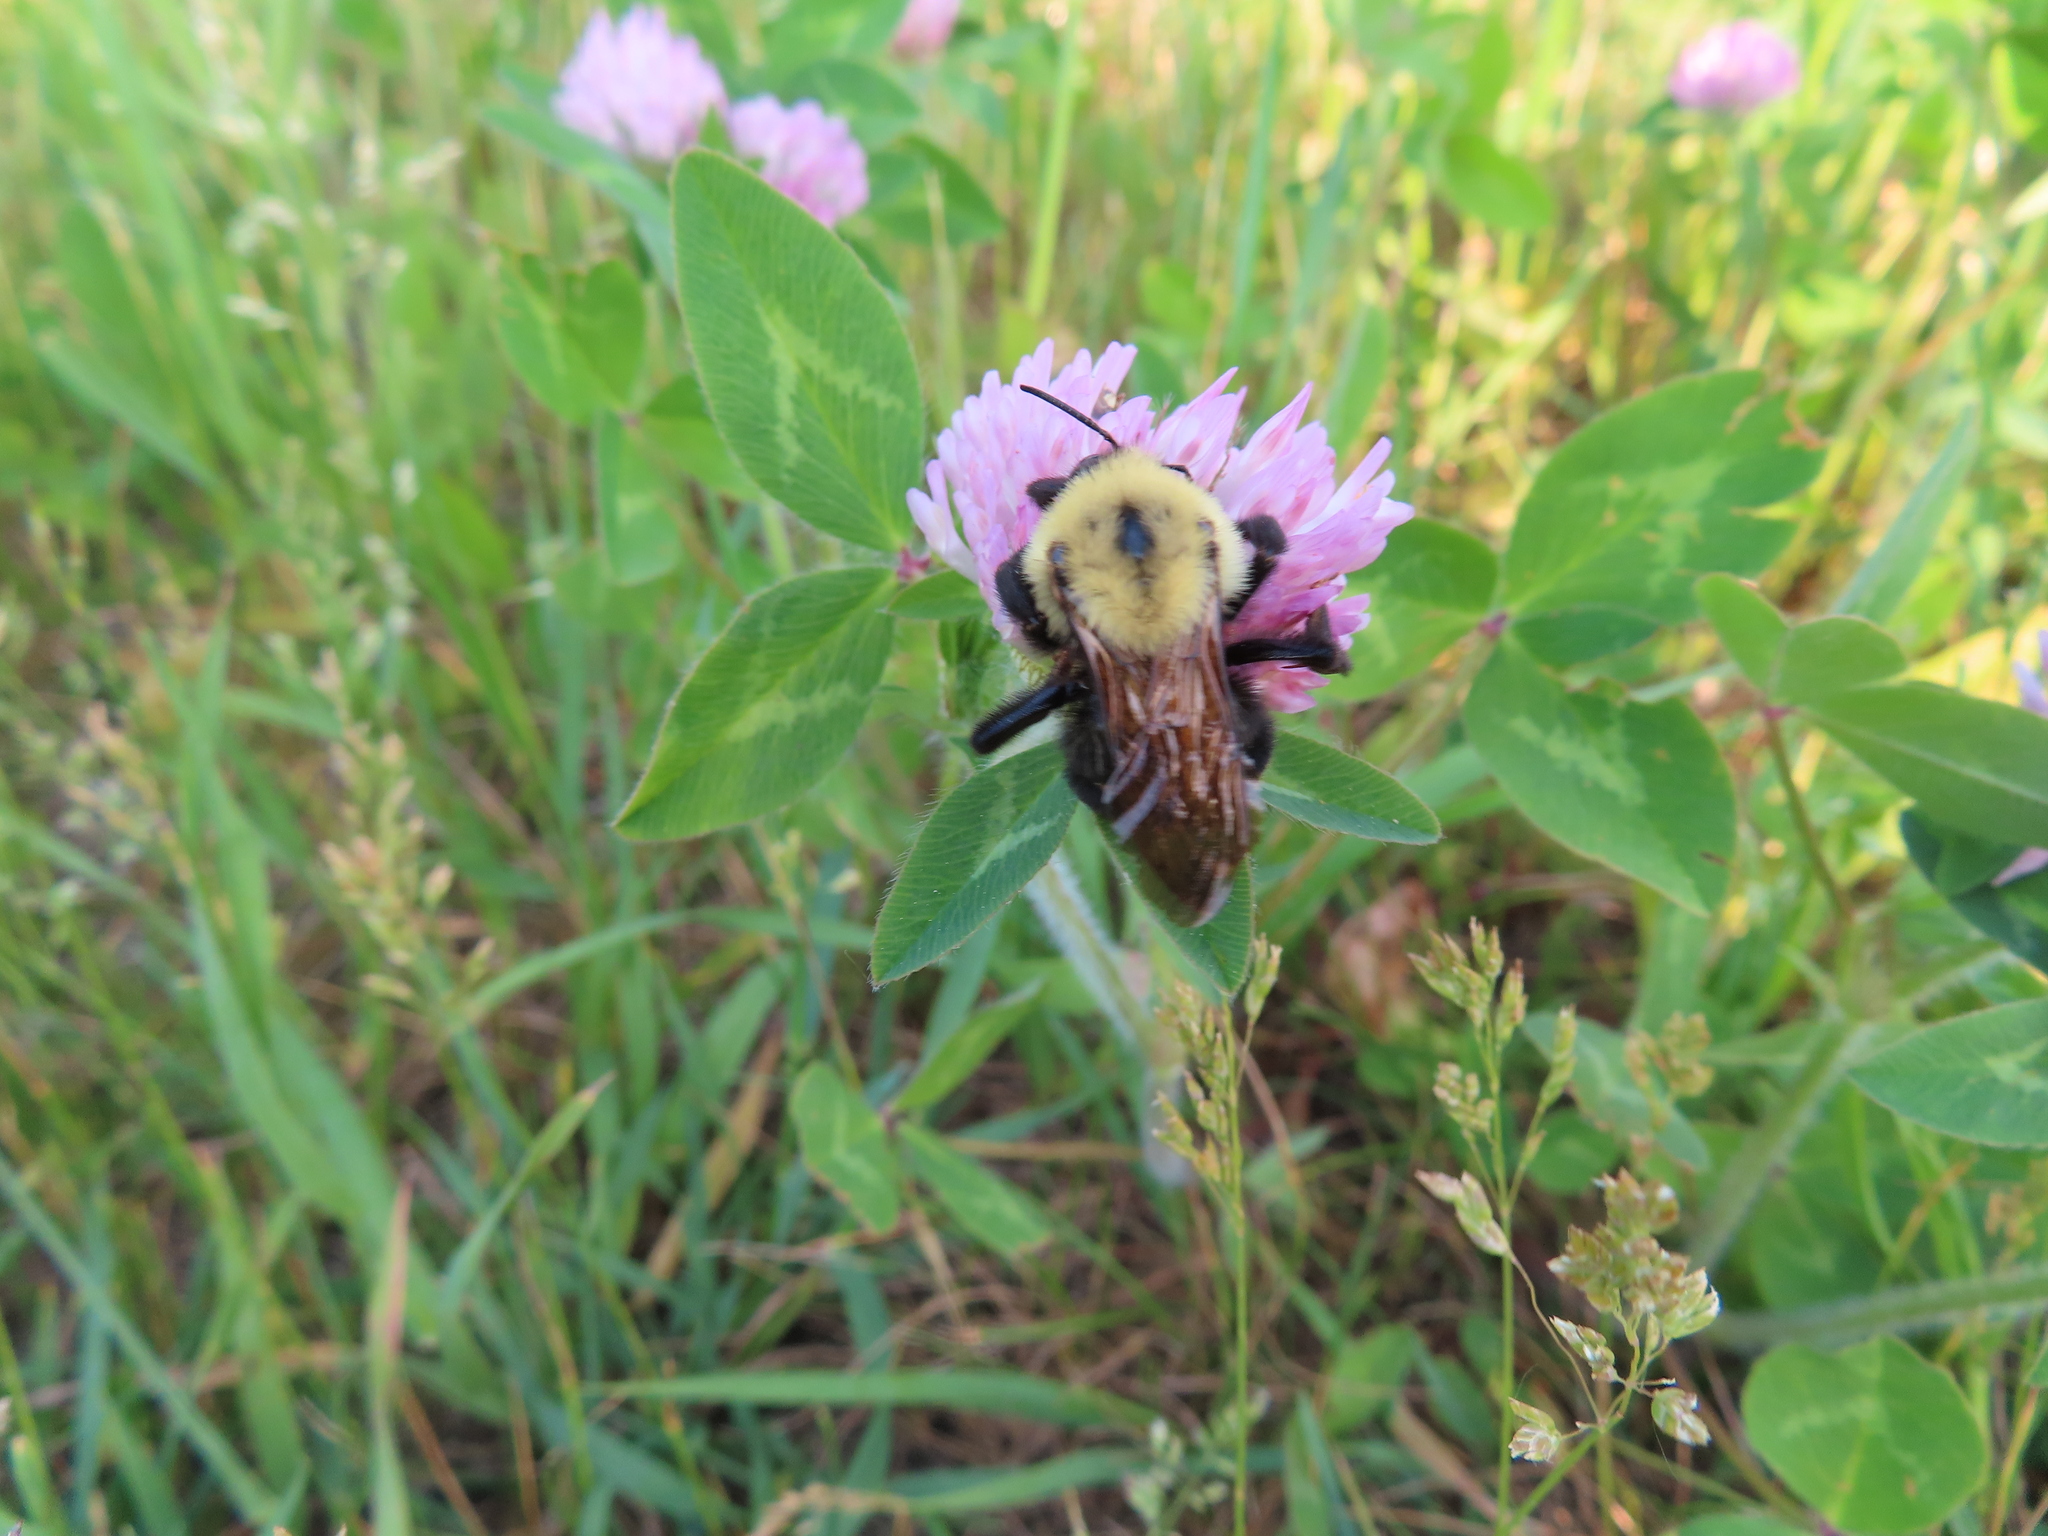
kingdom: Animalia
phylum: Arthropoda
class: Insecta
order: Hymenoptera
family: Apidae
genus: Bombus
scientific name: Bombus citrinus
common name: Lemon cuckoo bumble bee
